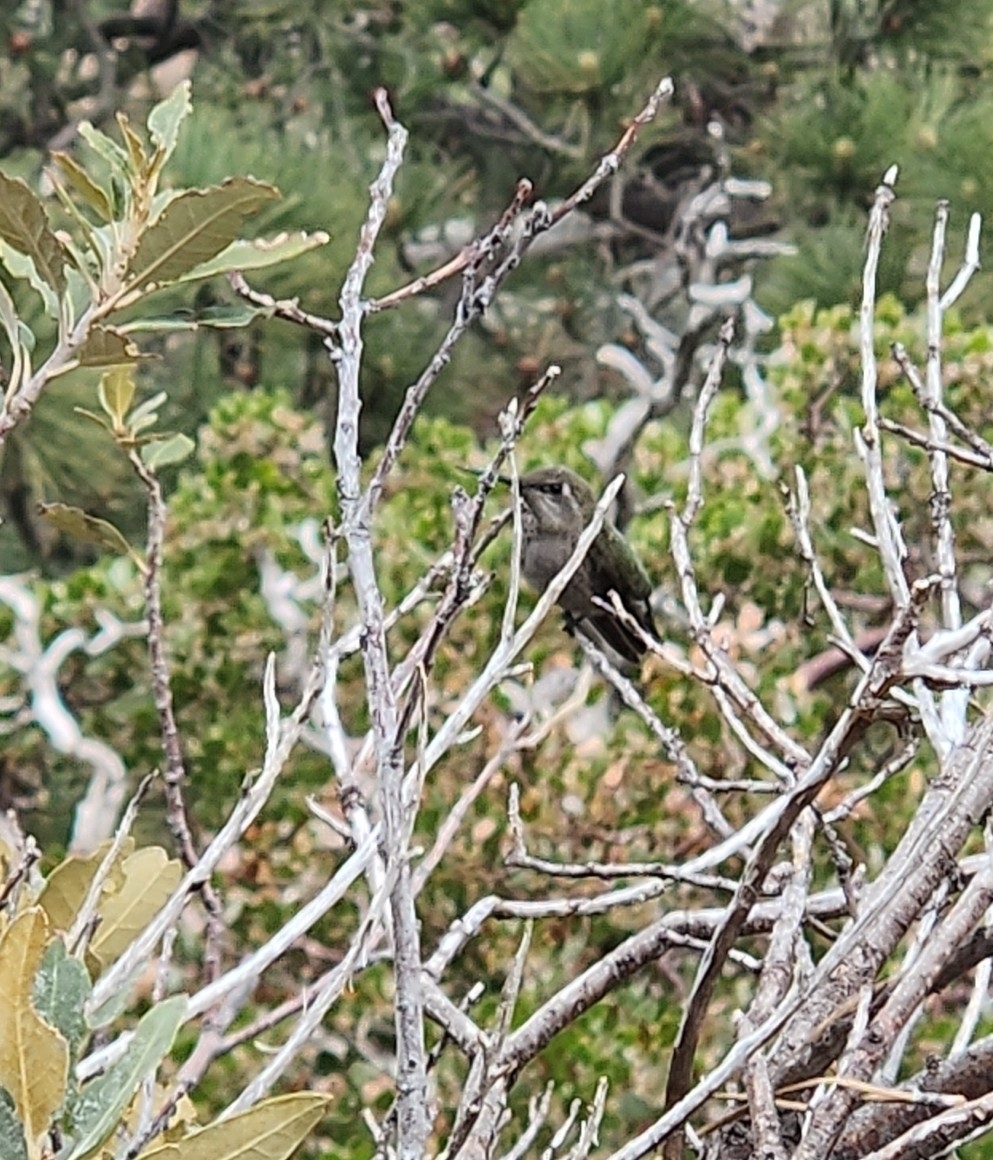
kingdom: Animalia
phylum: Chordata
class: Aves
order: Apodiformes
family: Trochilidae
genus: Calypte
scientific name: Calypte anna
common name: Anna's hummingbird
